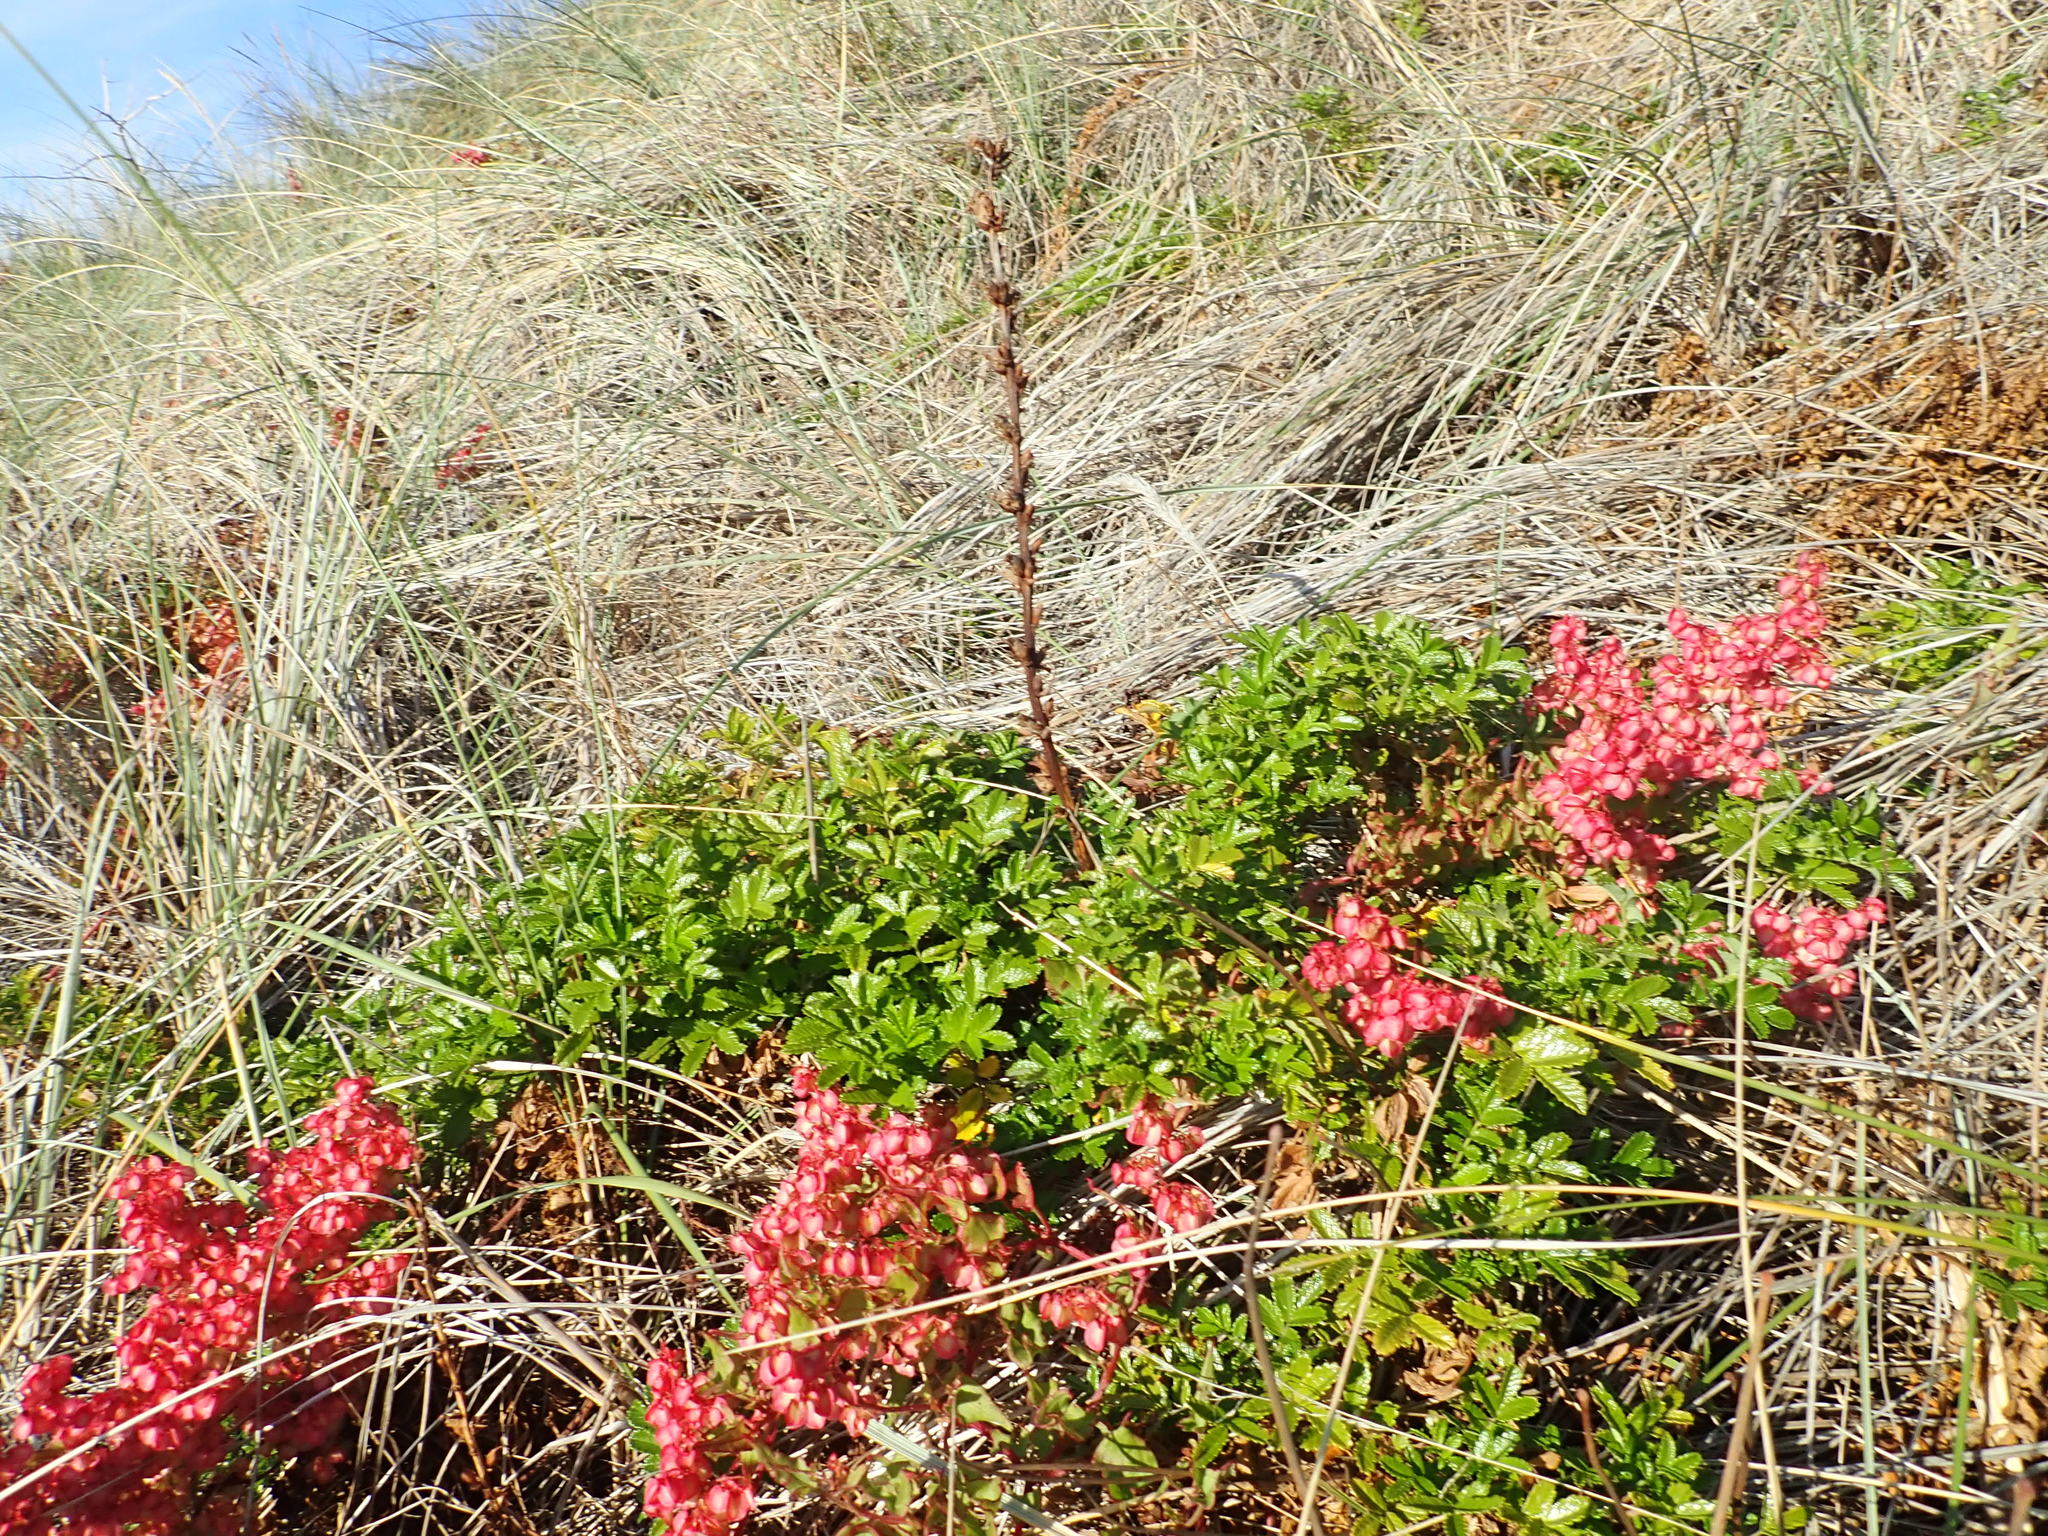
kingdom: Plantae
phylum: Tracheophyta
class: Magnoliopsida
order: Rosales
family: Rosaceae
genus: Acaena
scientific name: Acaena novae-zelandiae
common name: Pirri-pirri-bur
